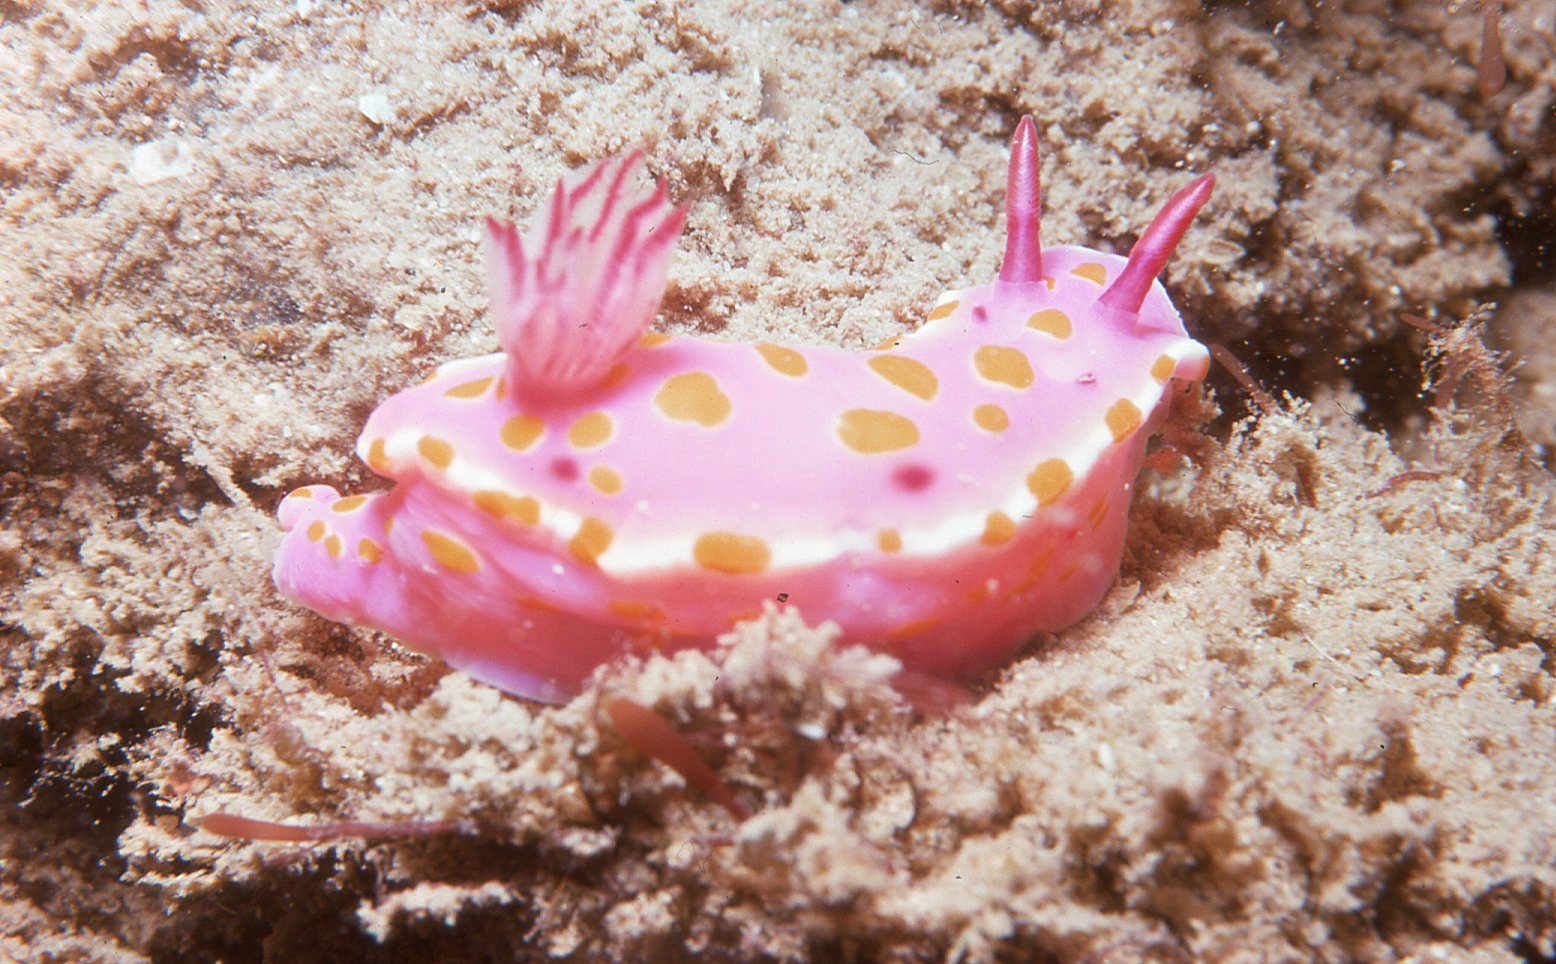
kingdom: Animalia
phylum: Mollusca
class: Gastropoda
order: Nudibranchia
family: Chromodorididae
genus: Ceratosoma
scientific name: Ceratosoma amoenum
